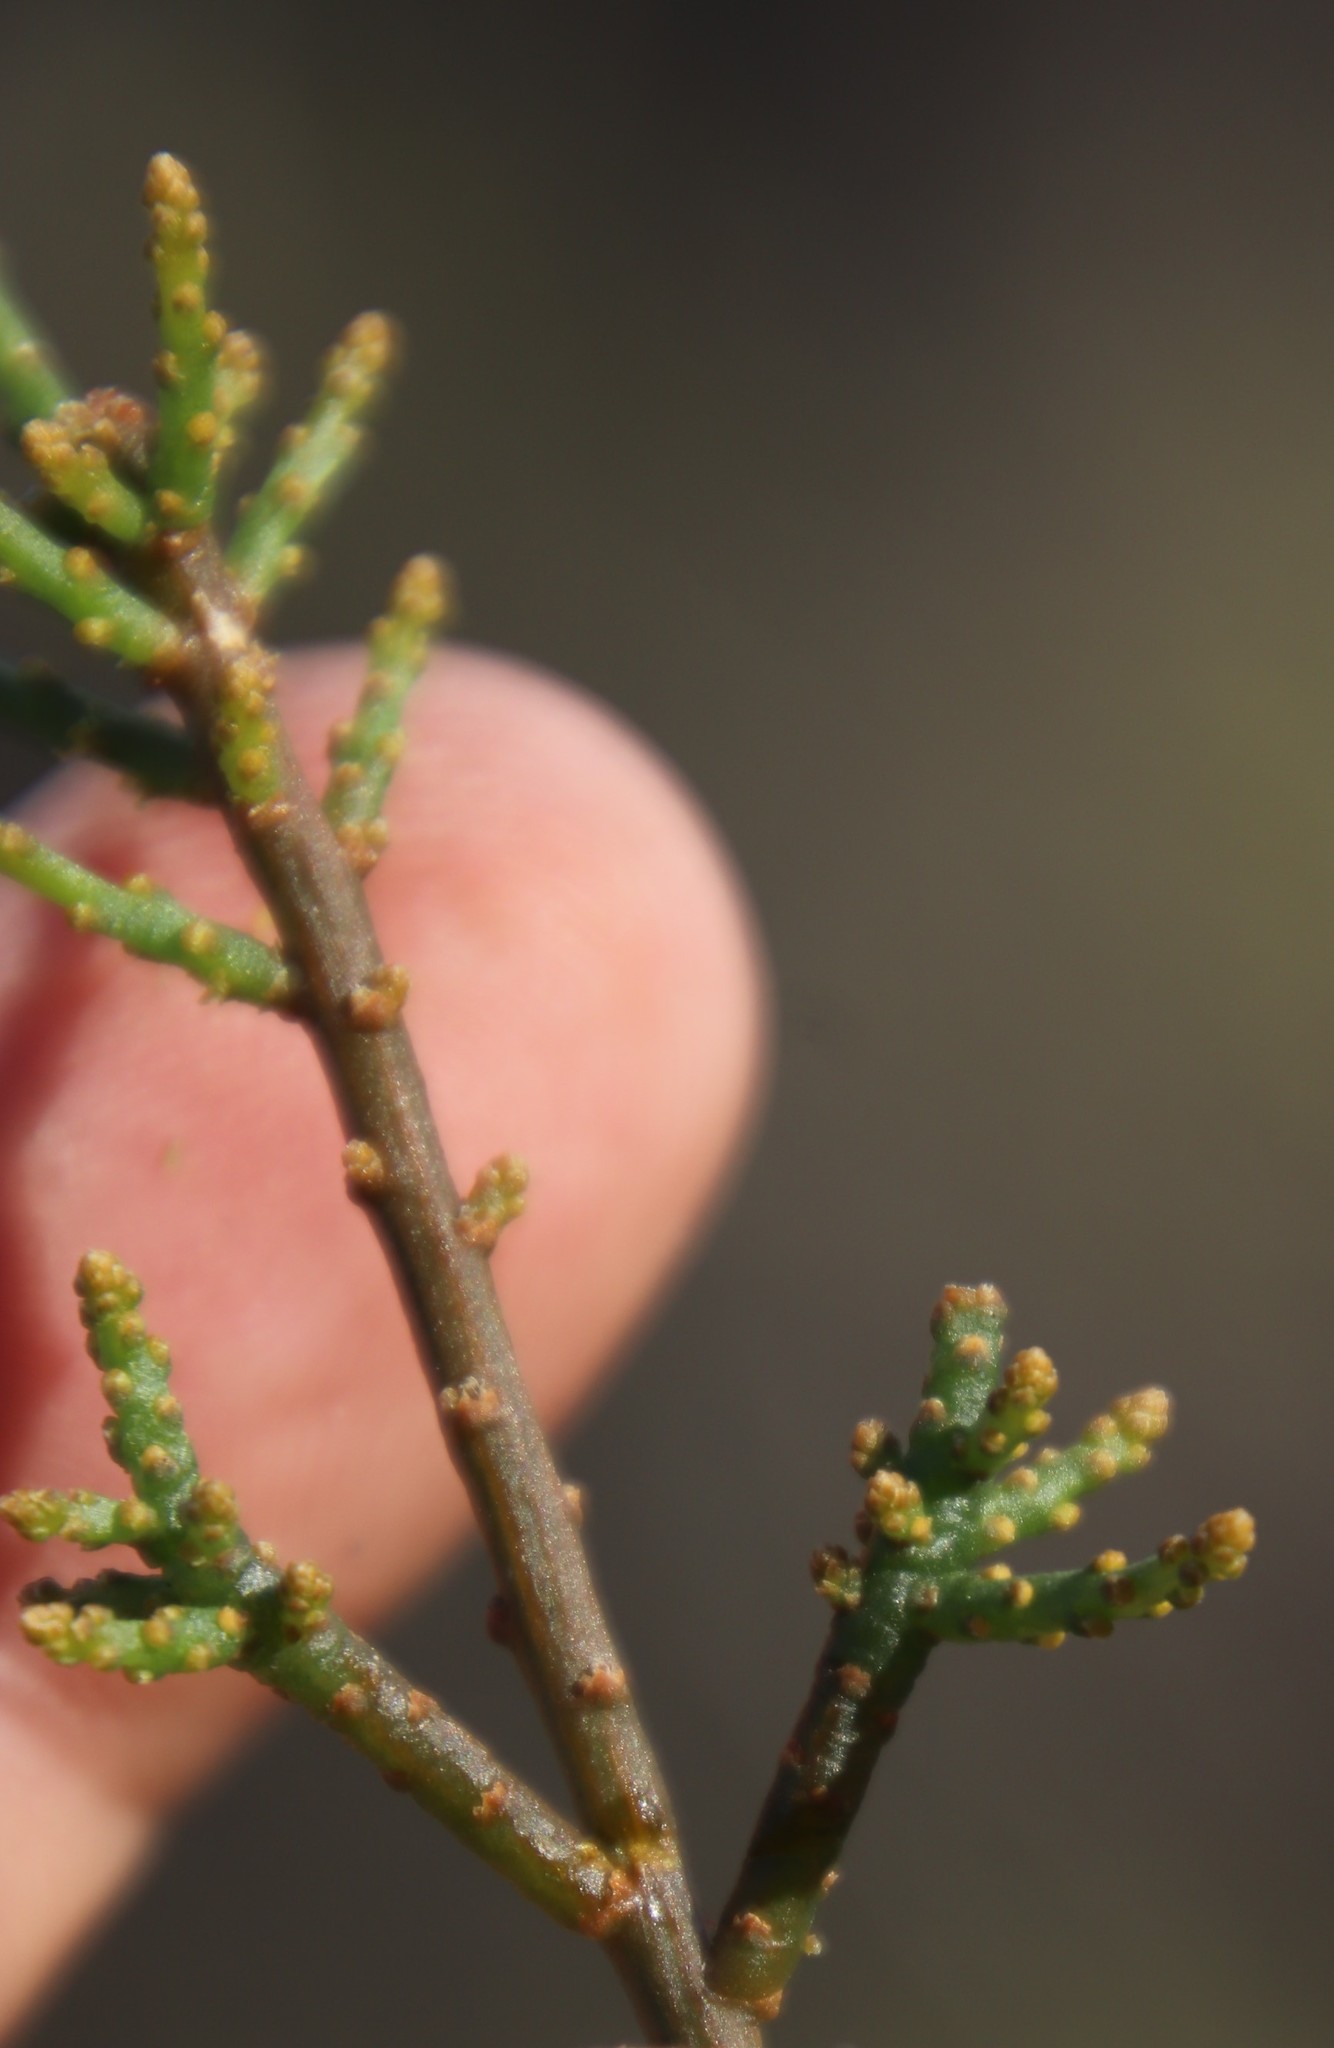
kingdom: Plantae
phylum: Tracheophyta
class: Magnoliopsida
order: Santalales
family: Viscaceae
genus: Viscum
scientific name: Viscum capense
